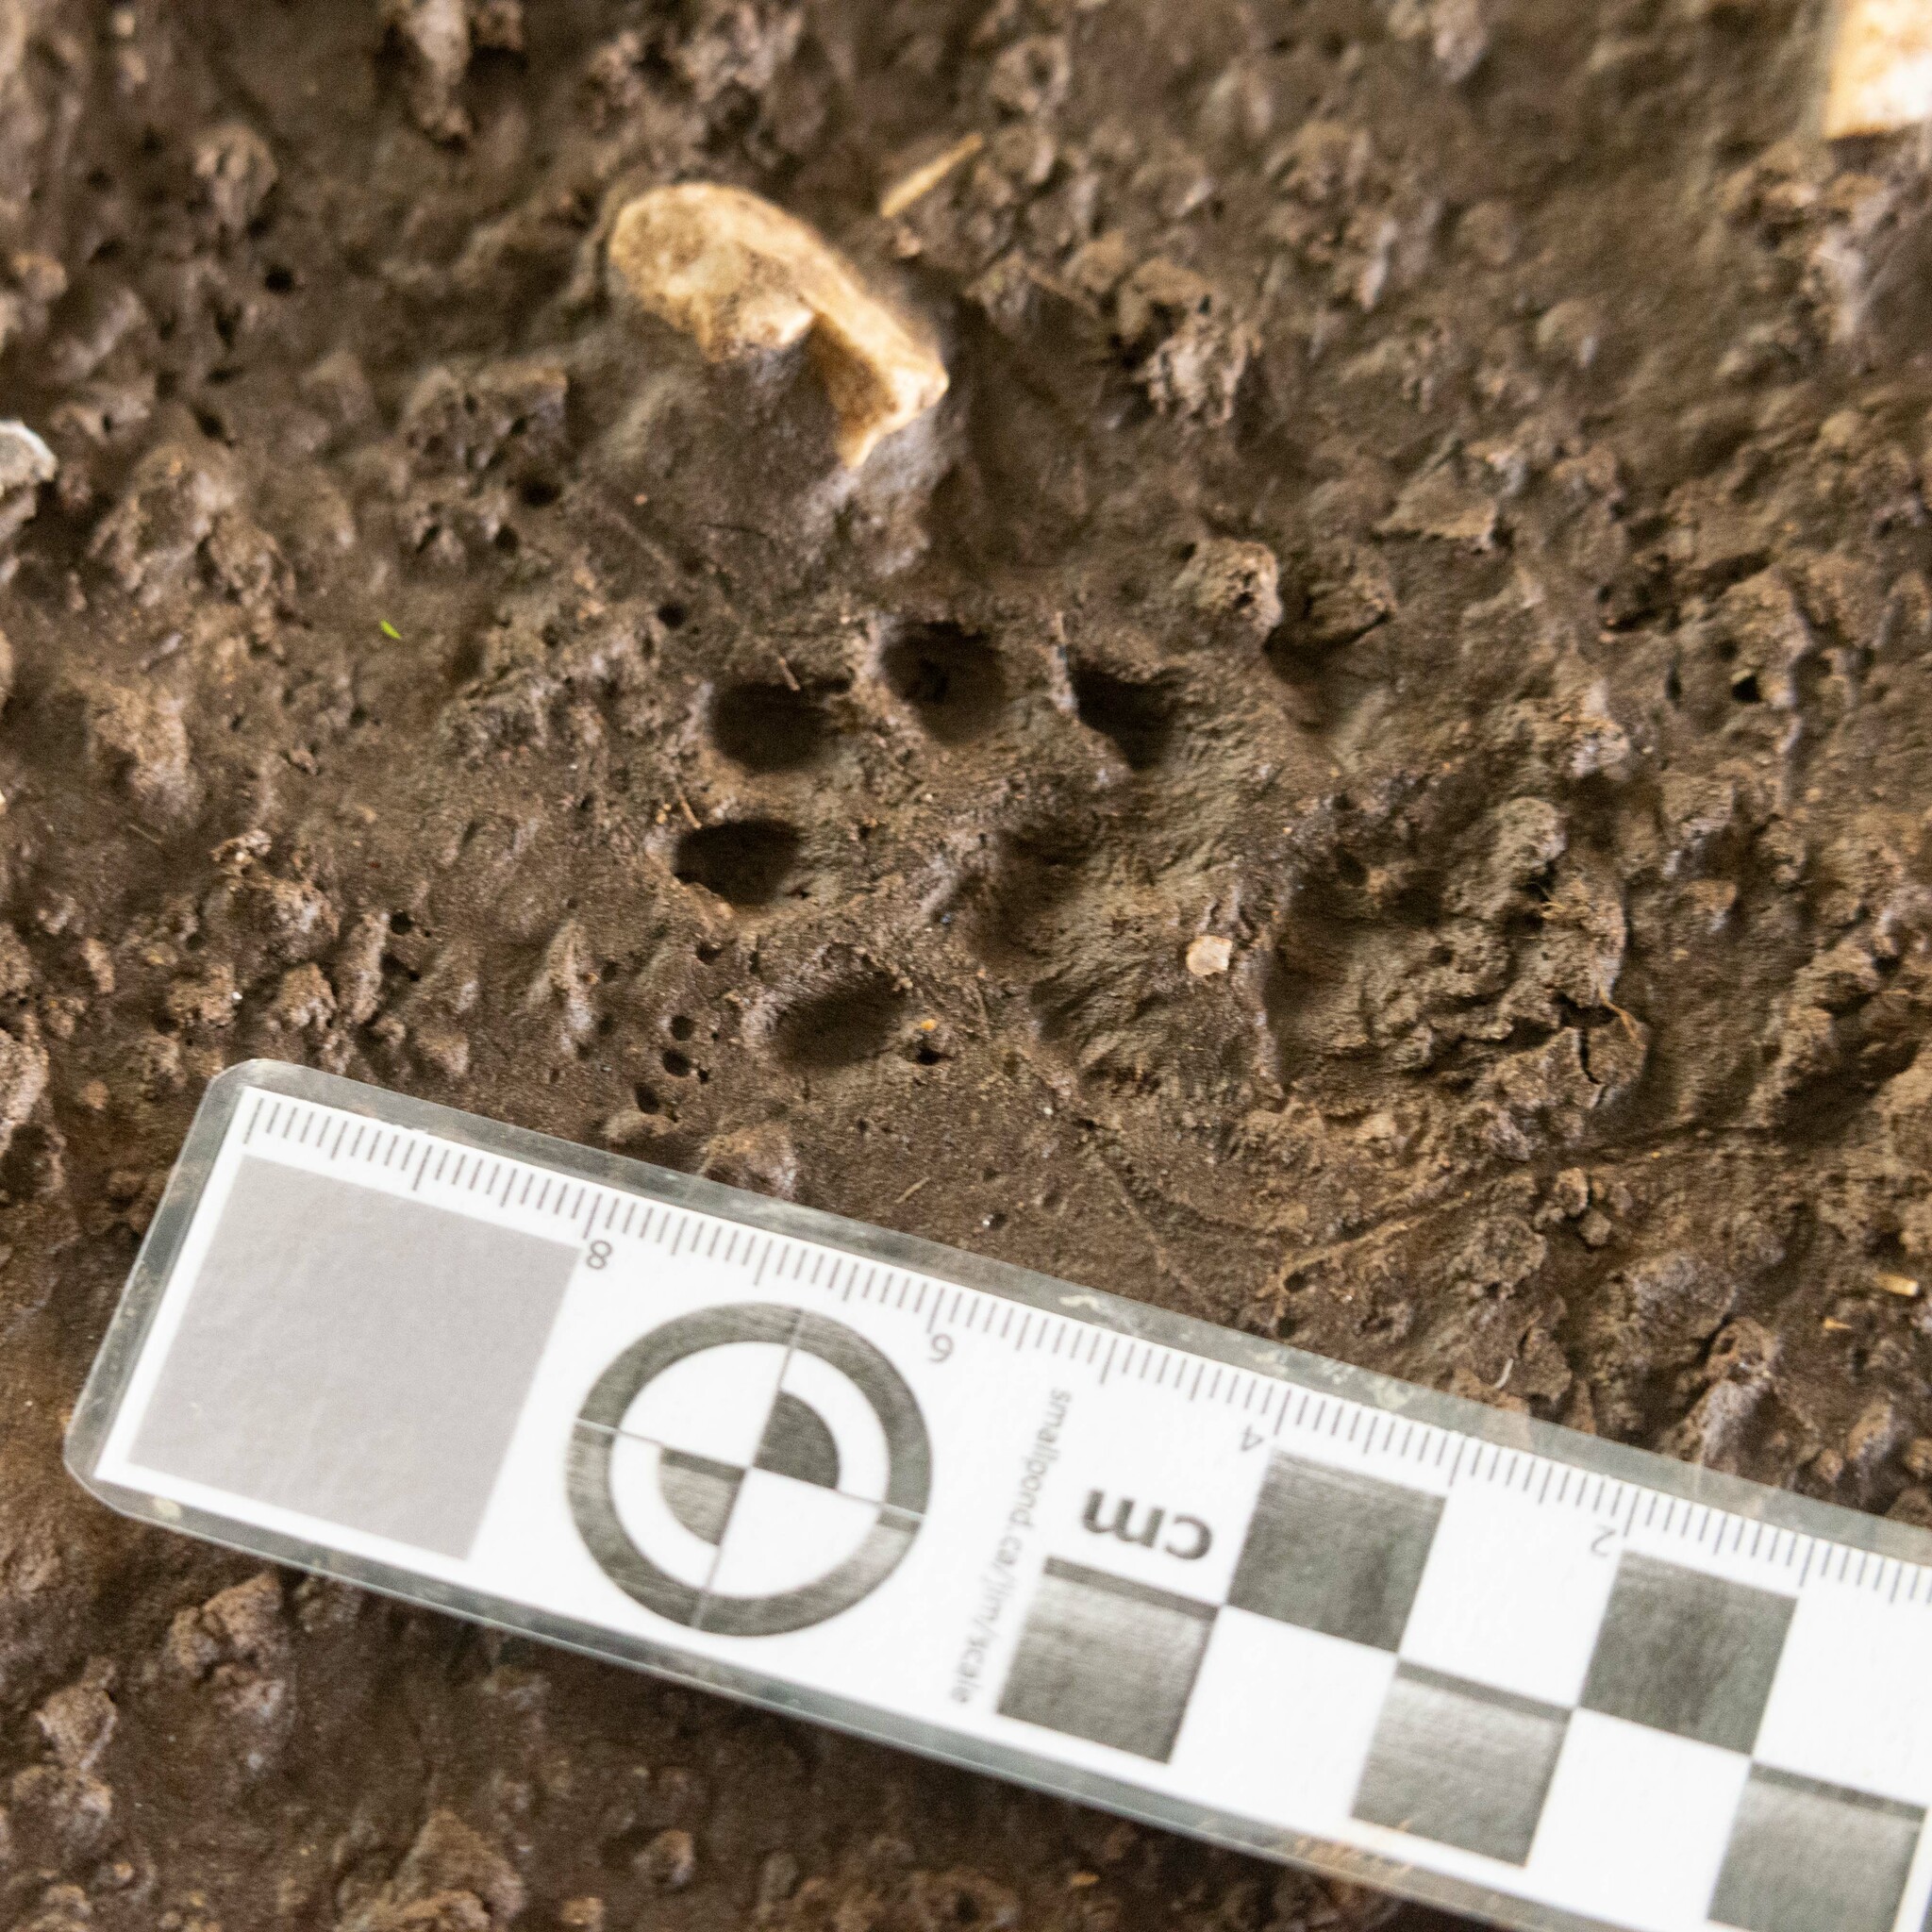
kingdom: Animalia
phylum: Chordata
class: Mammalia
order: Carnivora
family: Mustelidae
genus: Martes
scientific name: Martes foina
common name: Beech marten
